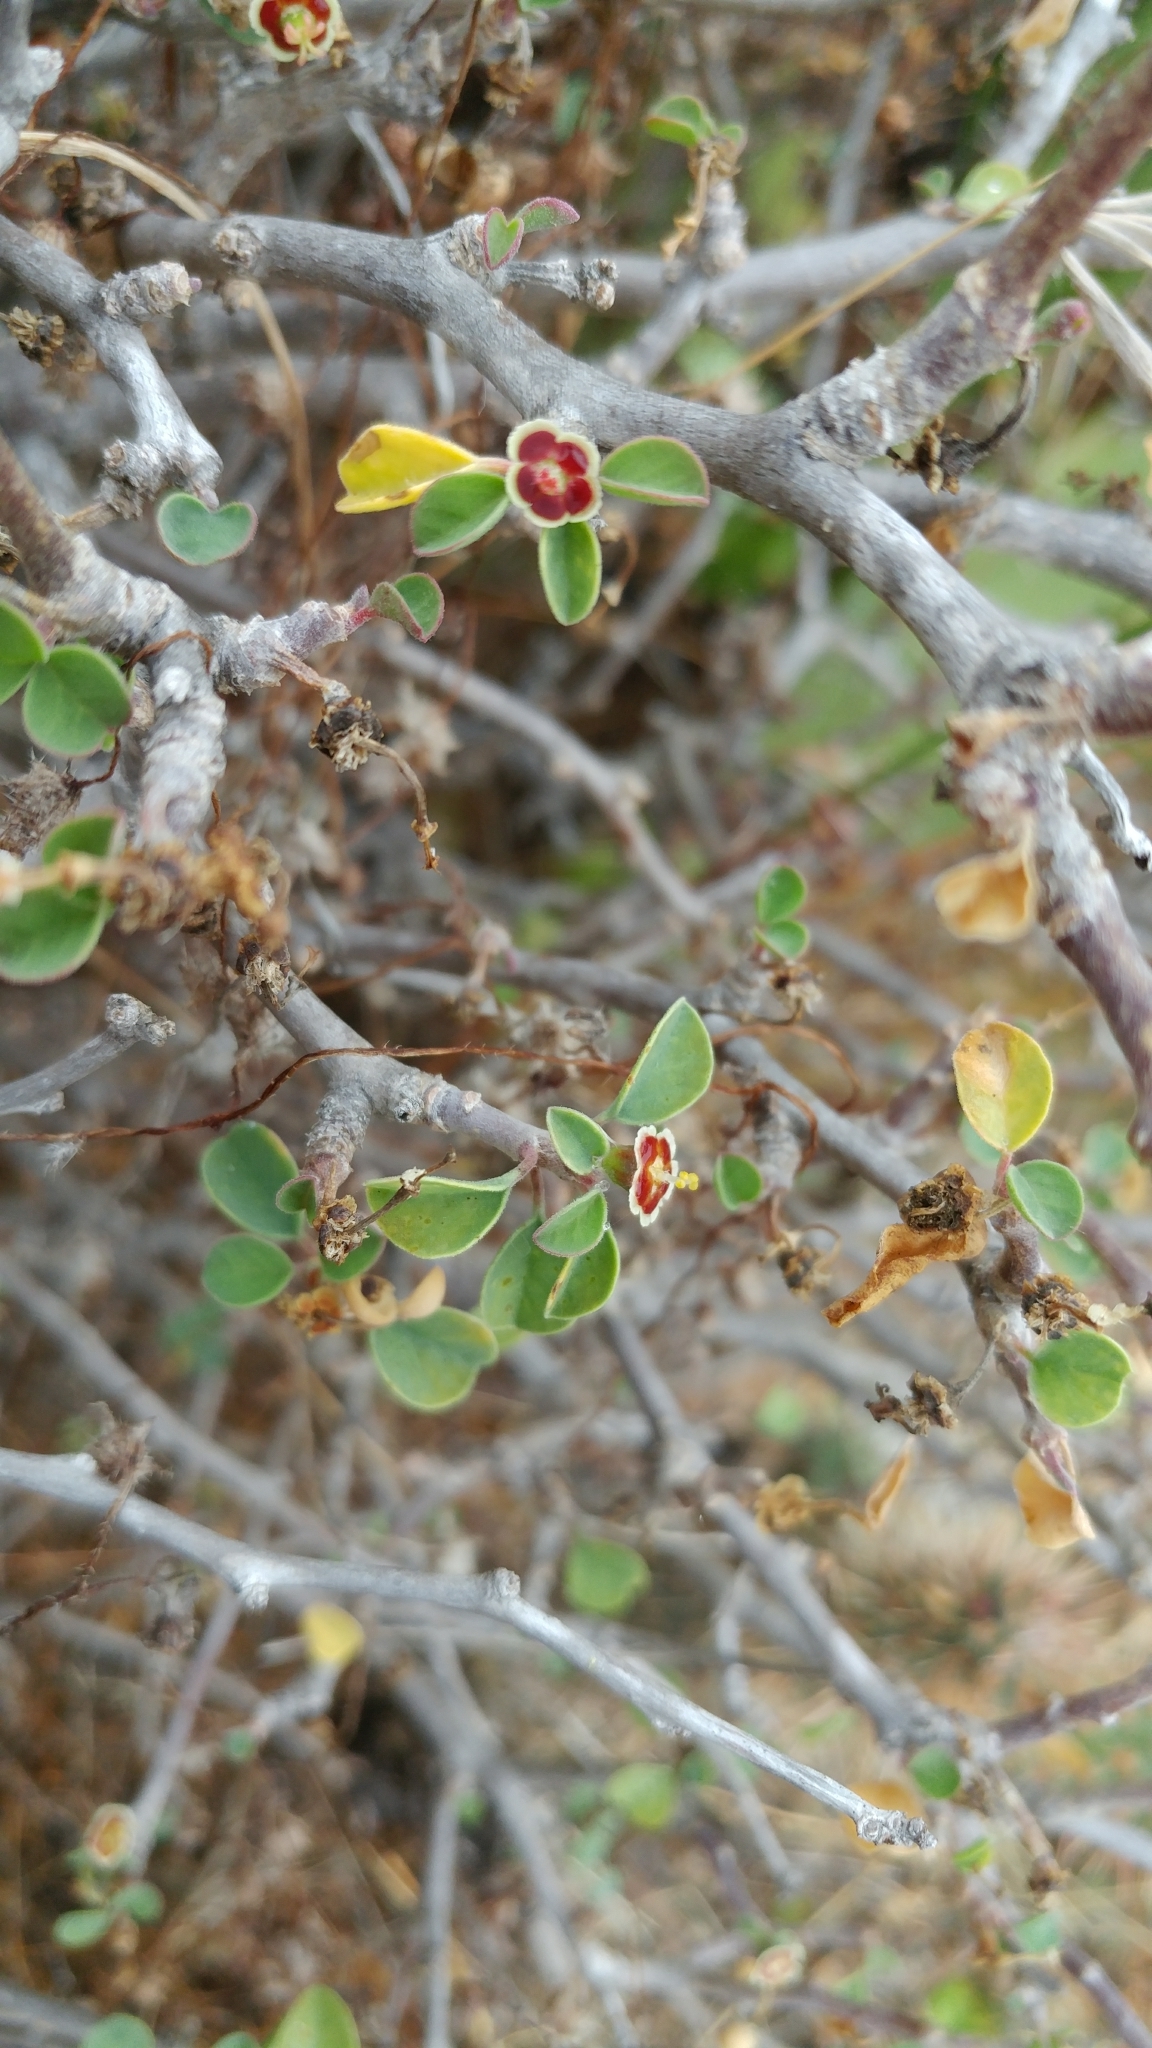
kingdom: Plantae
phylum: Tracheophyta
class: Magnoliopsida
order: Malpighiales
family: Euphorbiaceae
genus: Euphorbia
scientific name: Euphorbia misera
